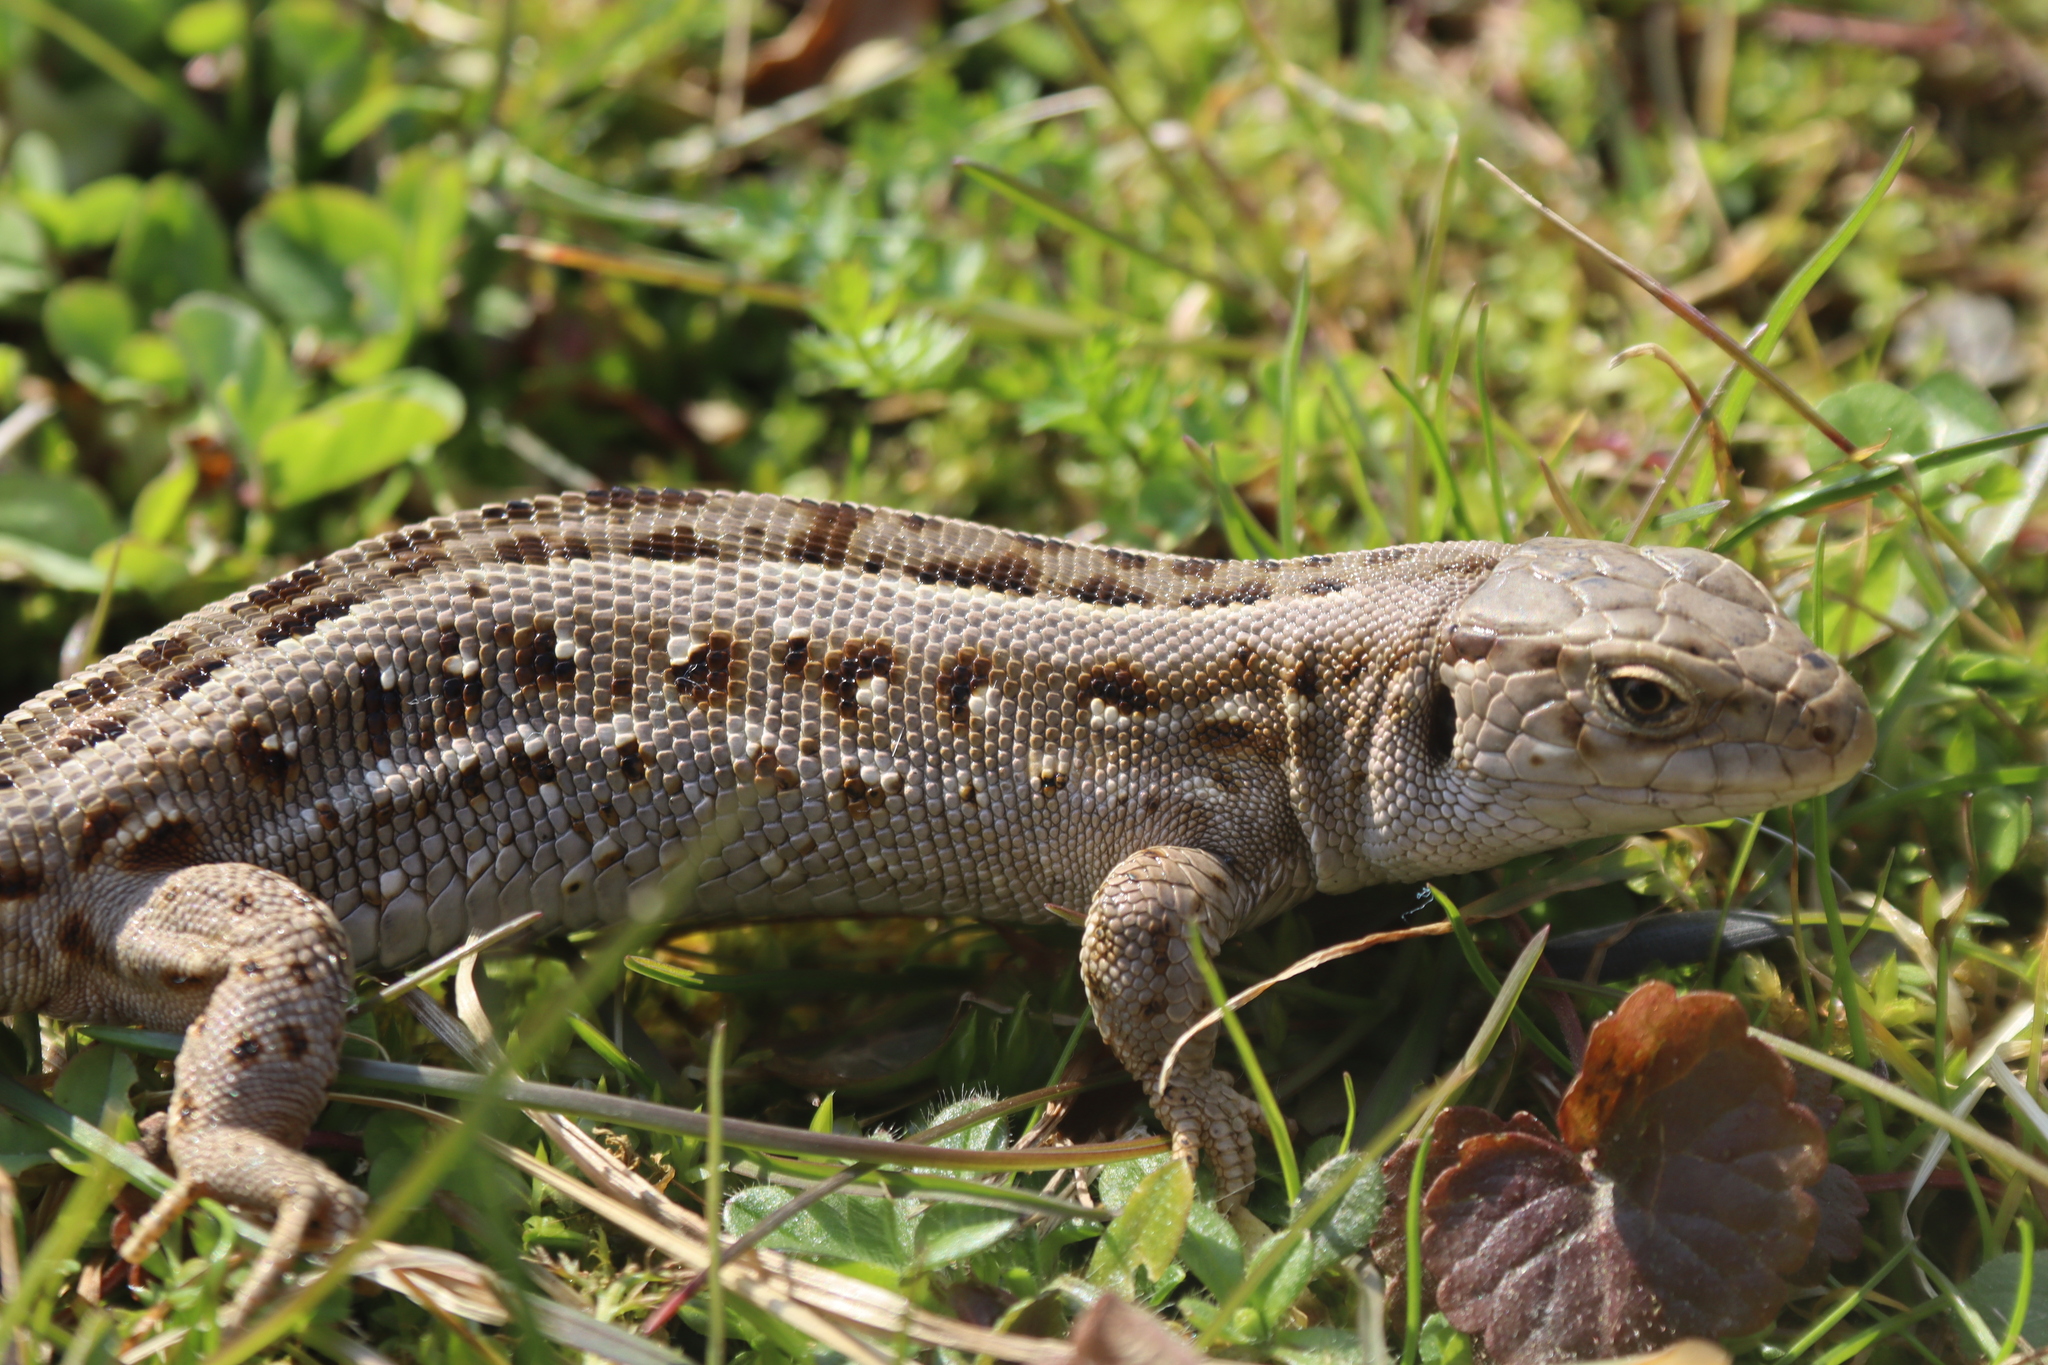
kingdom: Animalia
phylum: Chordata
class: Squamata
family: Lacertidae
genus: Lacerta
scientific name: Lacerta agilis
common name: Sand lizard
